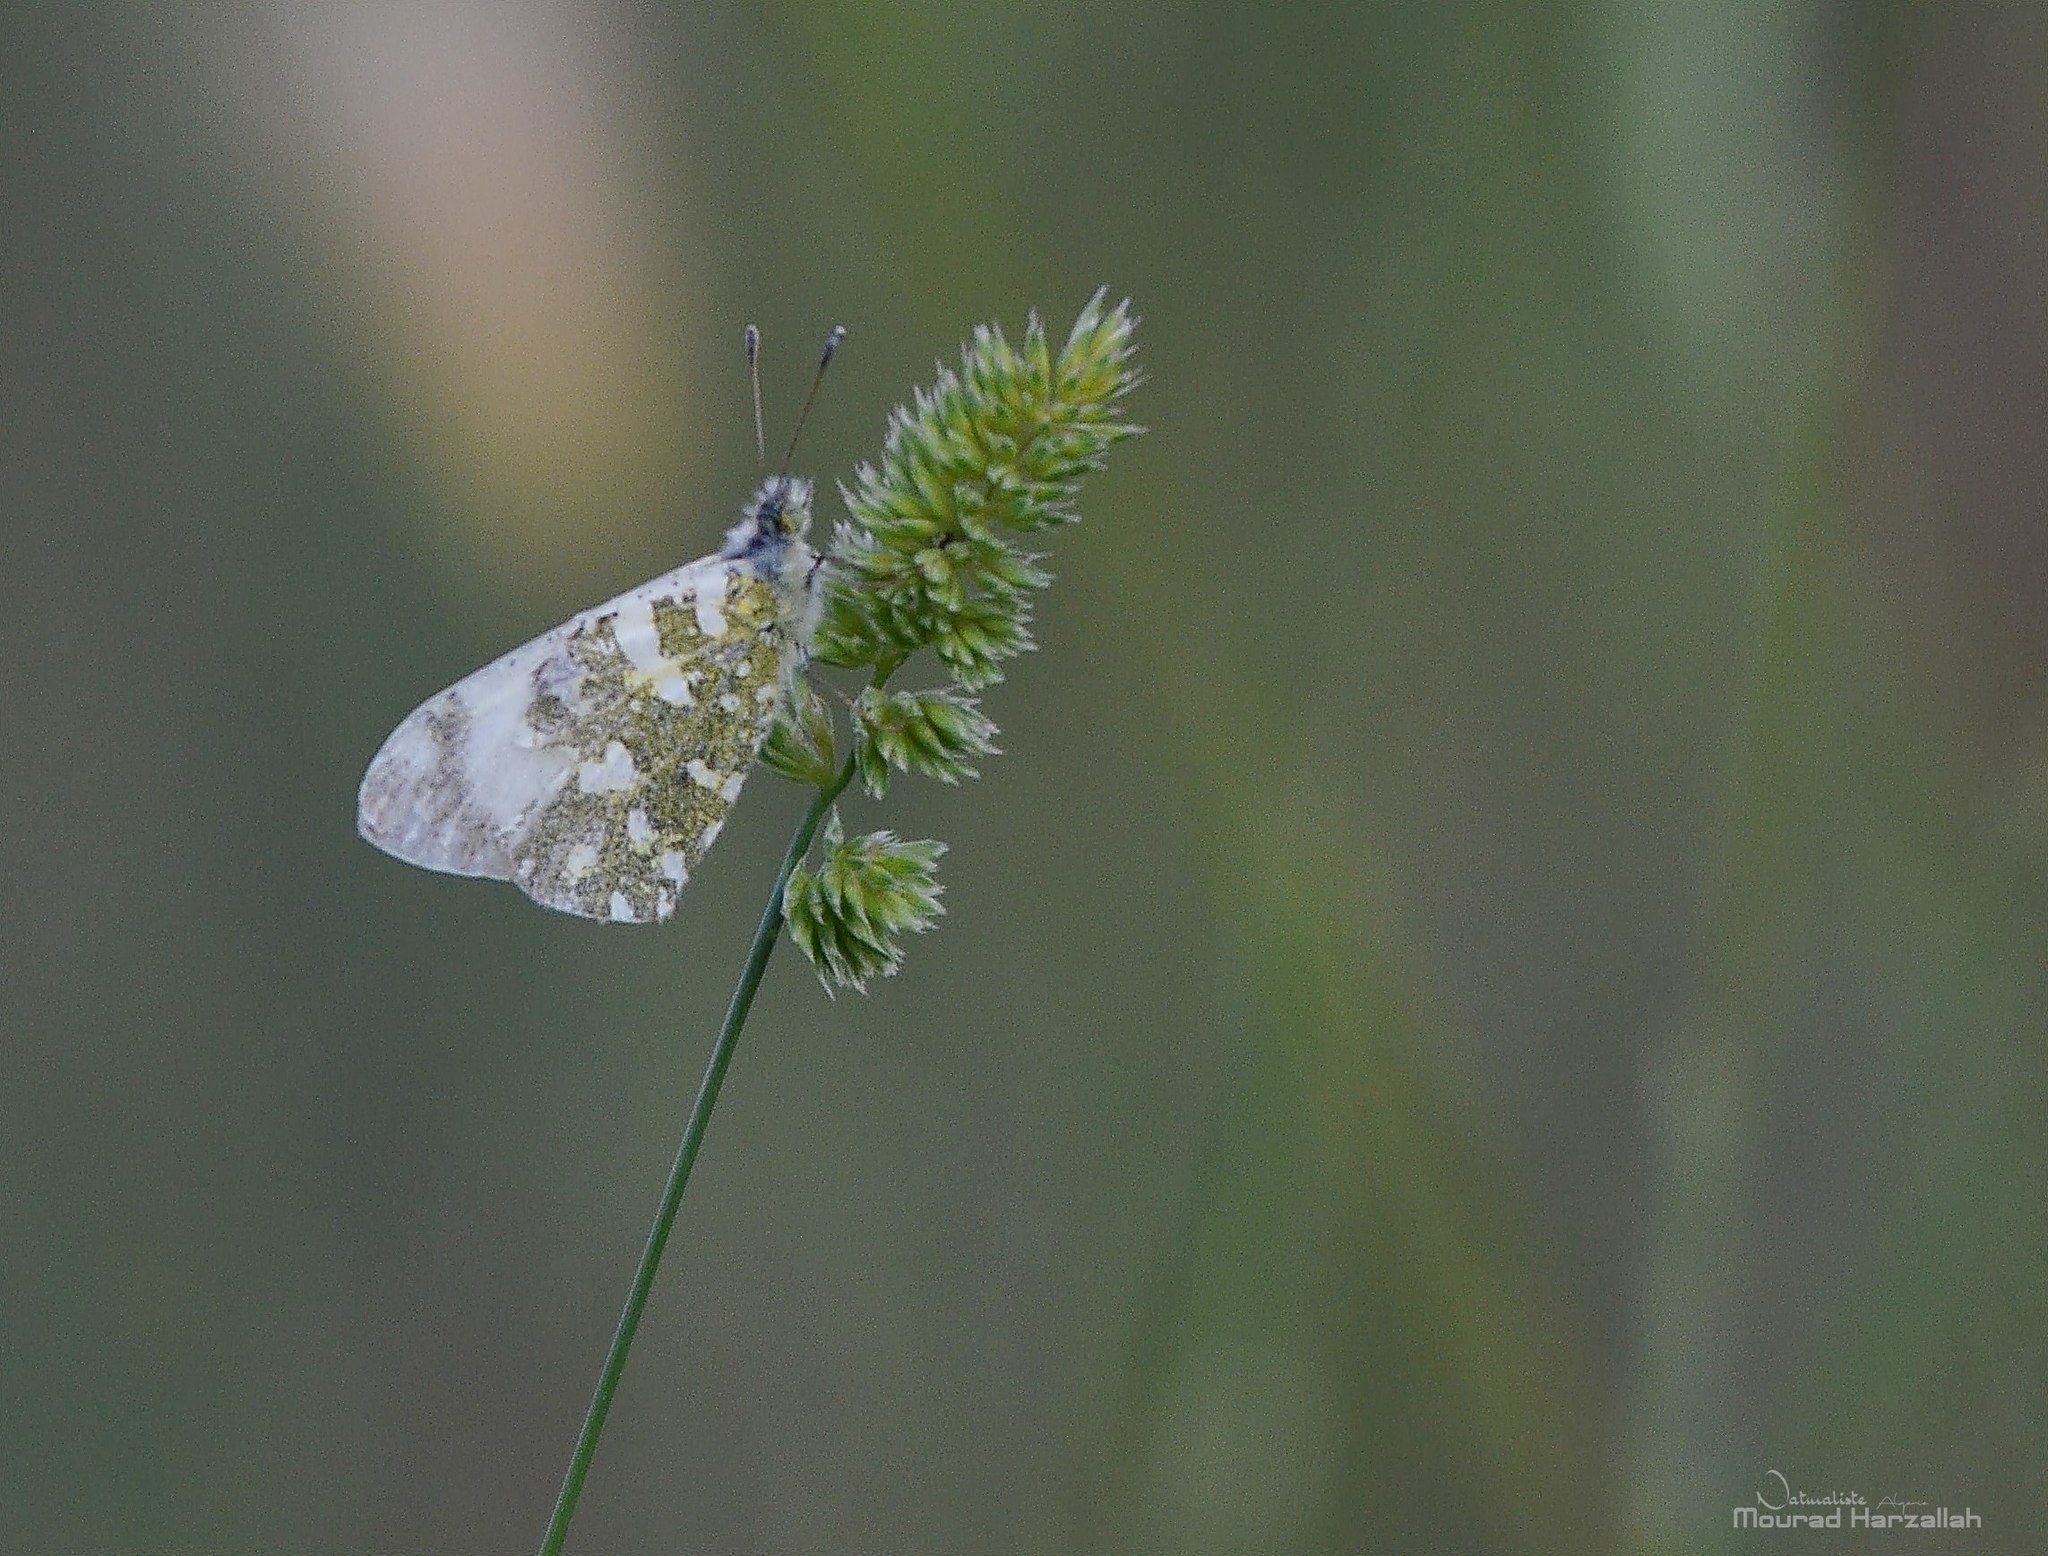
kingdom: Animalia
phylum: Arthropoda
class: Insecta
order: Lepidoptera
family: Pieridae
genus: Euchloe
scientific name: Euchloe crameri
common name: Western dappled white
